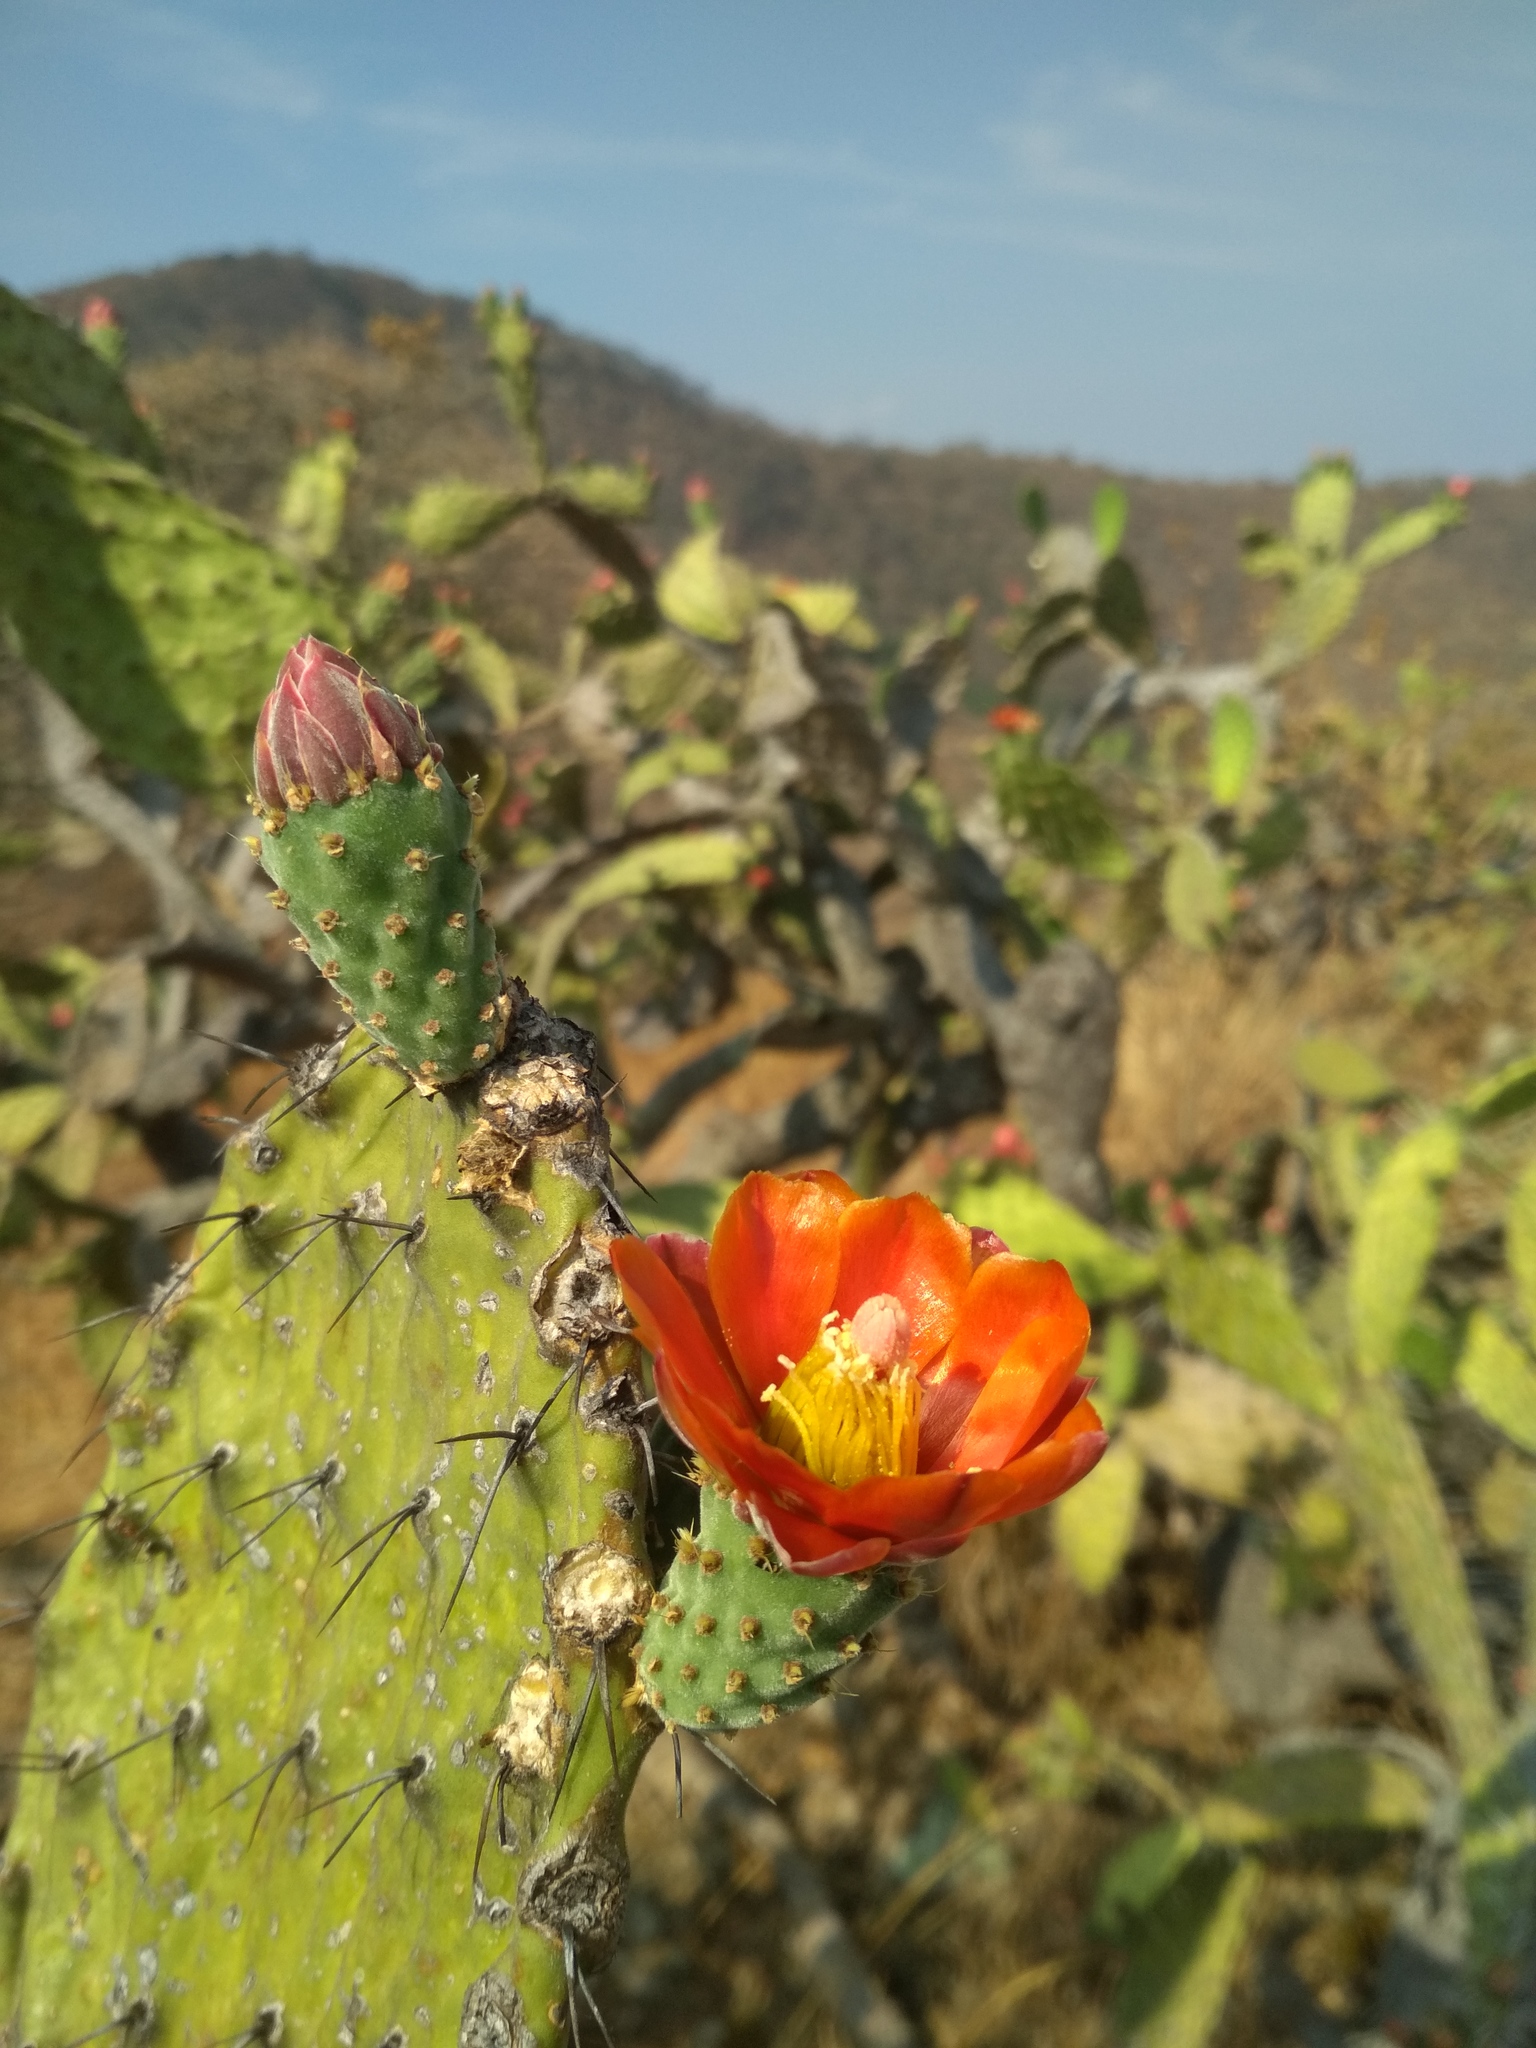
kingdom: Plantae
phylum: Tracheophyta
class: Magnoliopsida
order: Caryophyllales
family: Cactaceae
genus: Opuntia
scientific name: Opuntia tomentosa
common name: Woollyjoint pricklypear
